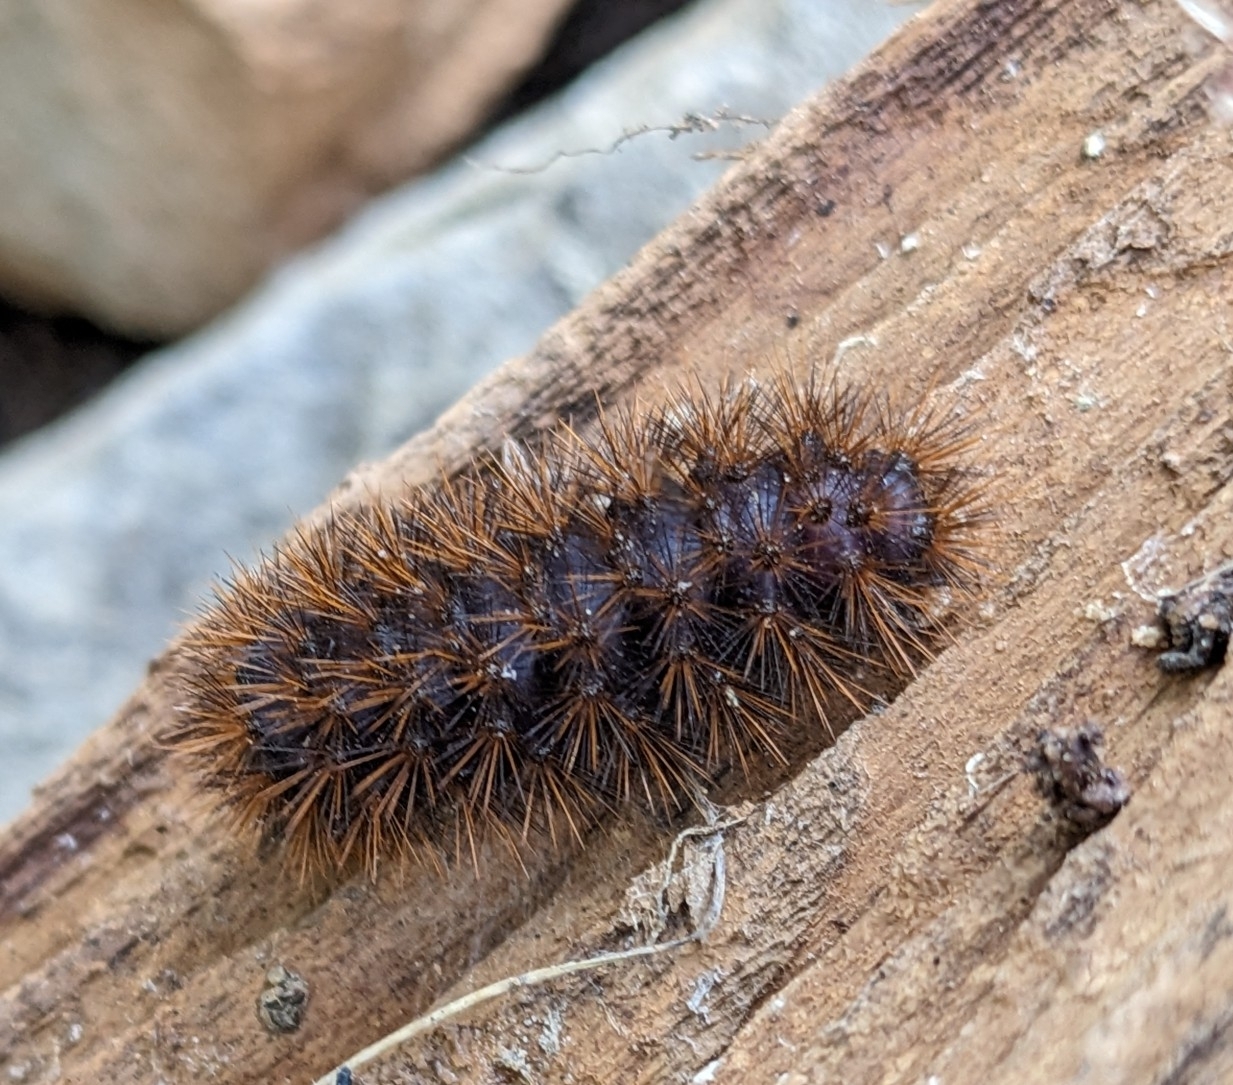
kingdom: Animalia
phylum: Arthropoda
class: Insecta
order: Lepidoptera
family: Erebidae
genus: Arachnis
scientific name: Arachnis picta
